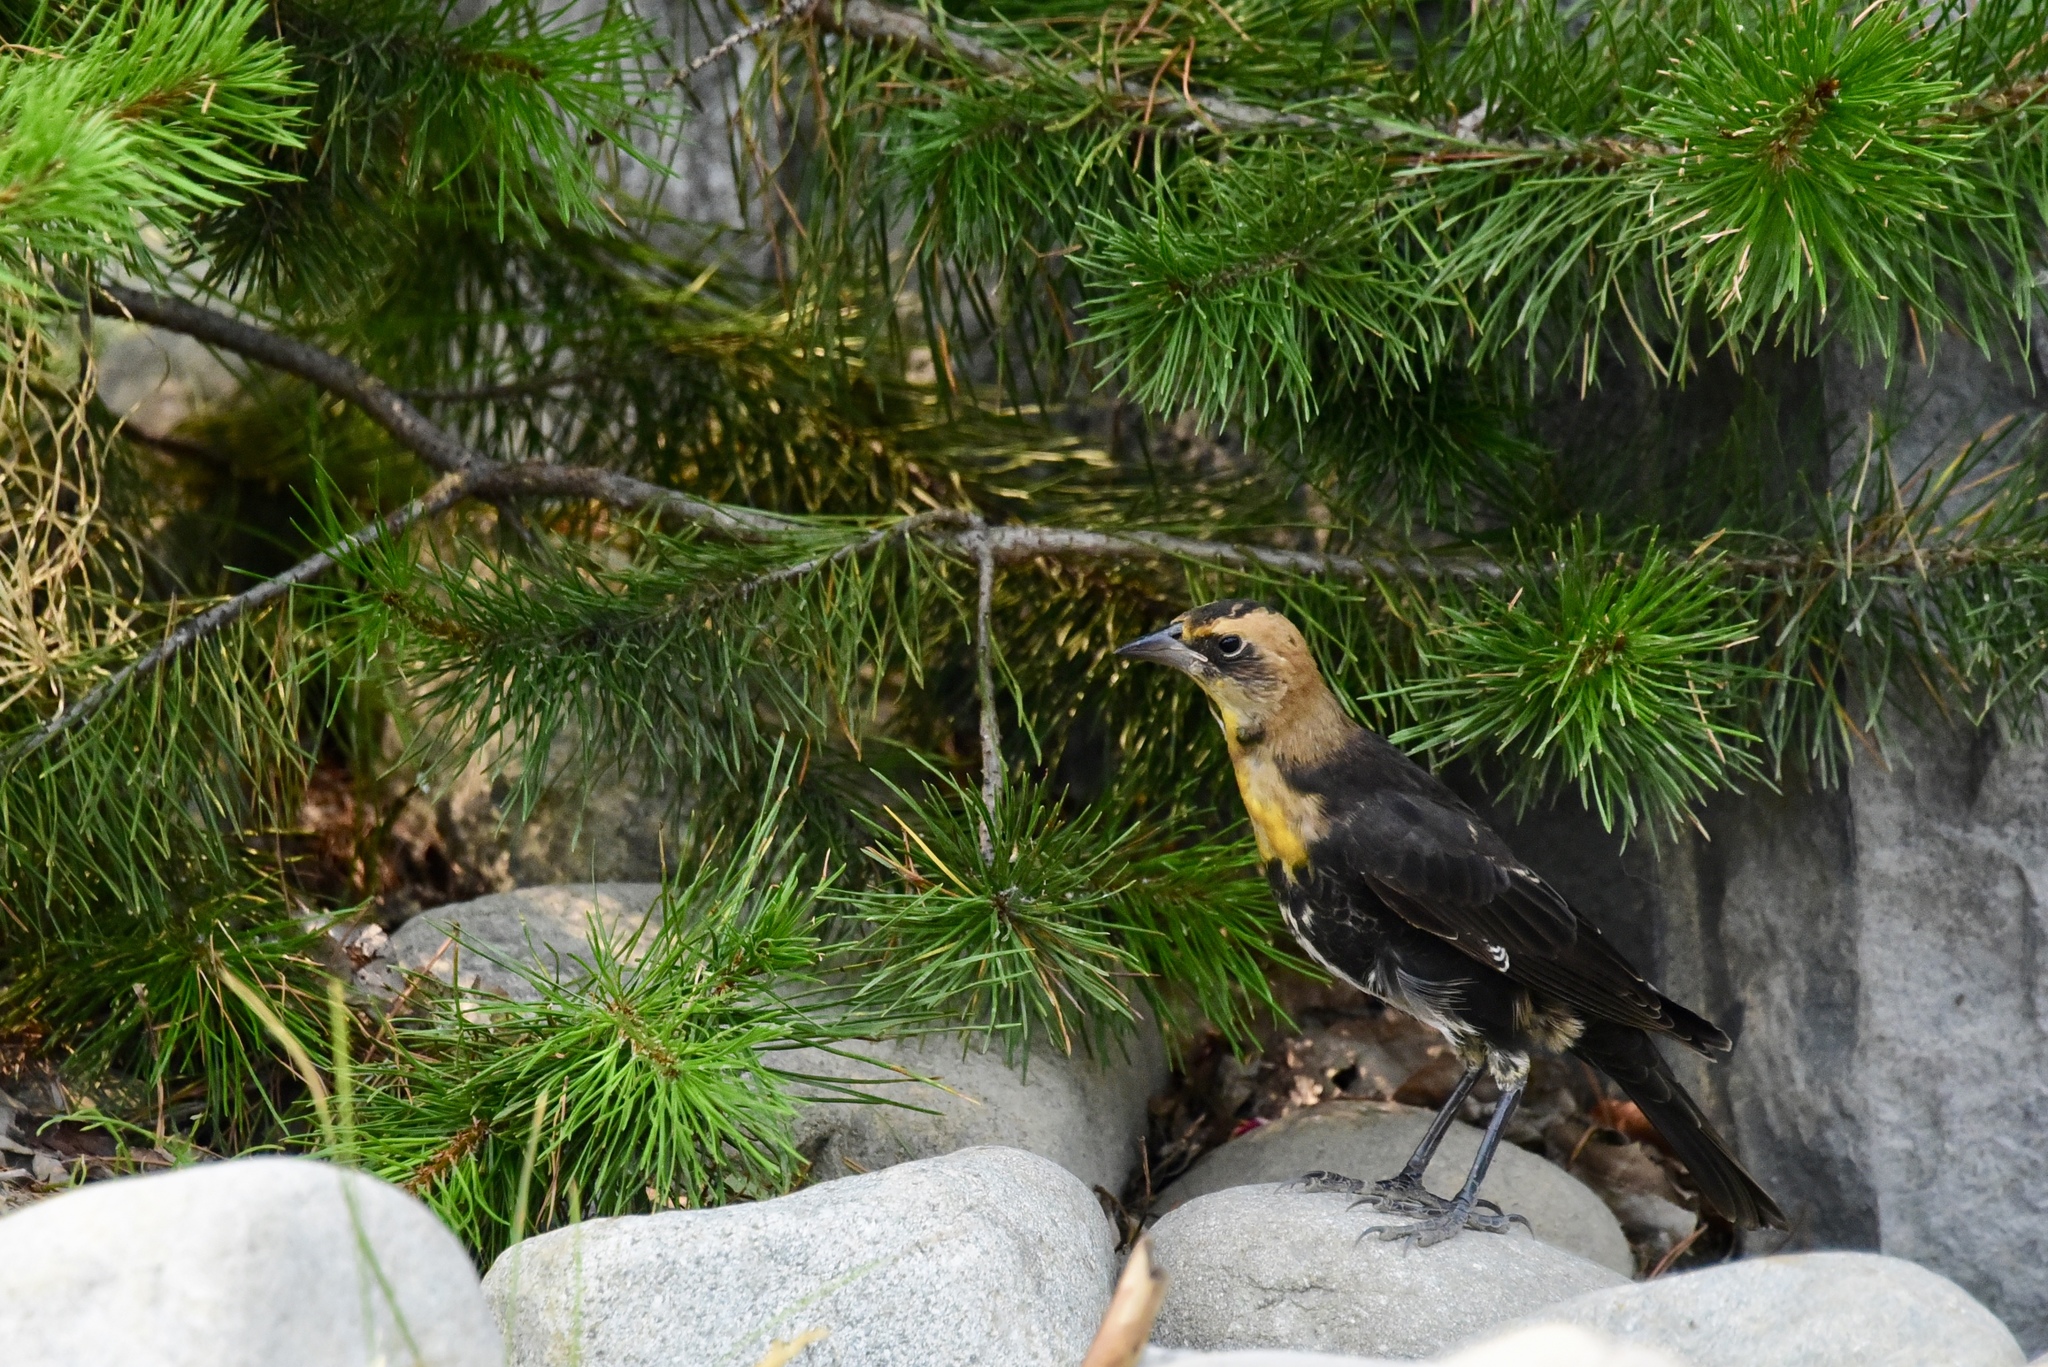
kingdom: Animalia
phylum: Chordata
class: Aves
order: Passeriformes
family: Icteridae
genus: Xanthocephalus
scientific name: Xanthocephalus xanthocephalus
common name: Yellow-headed blackbird
